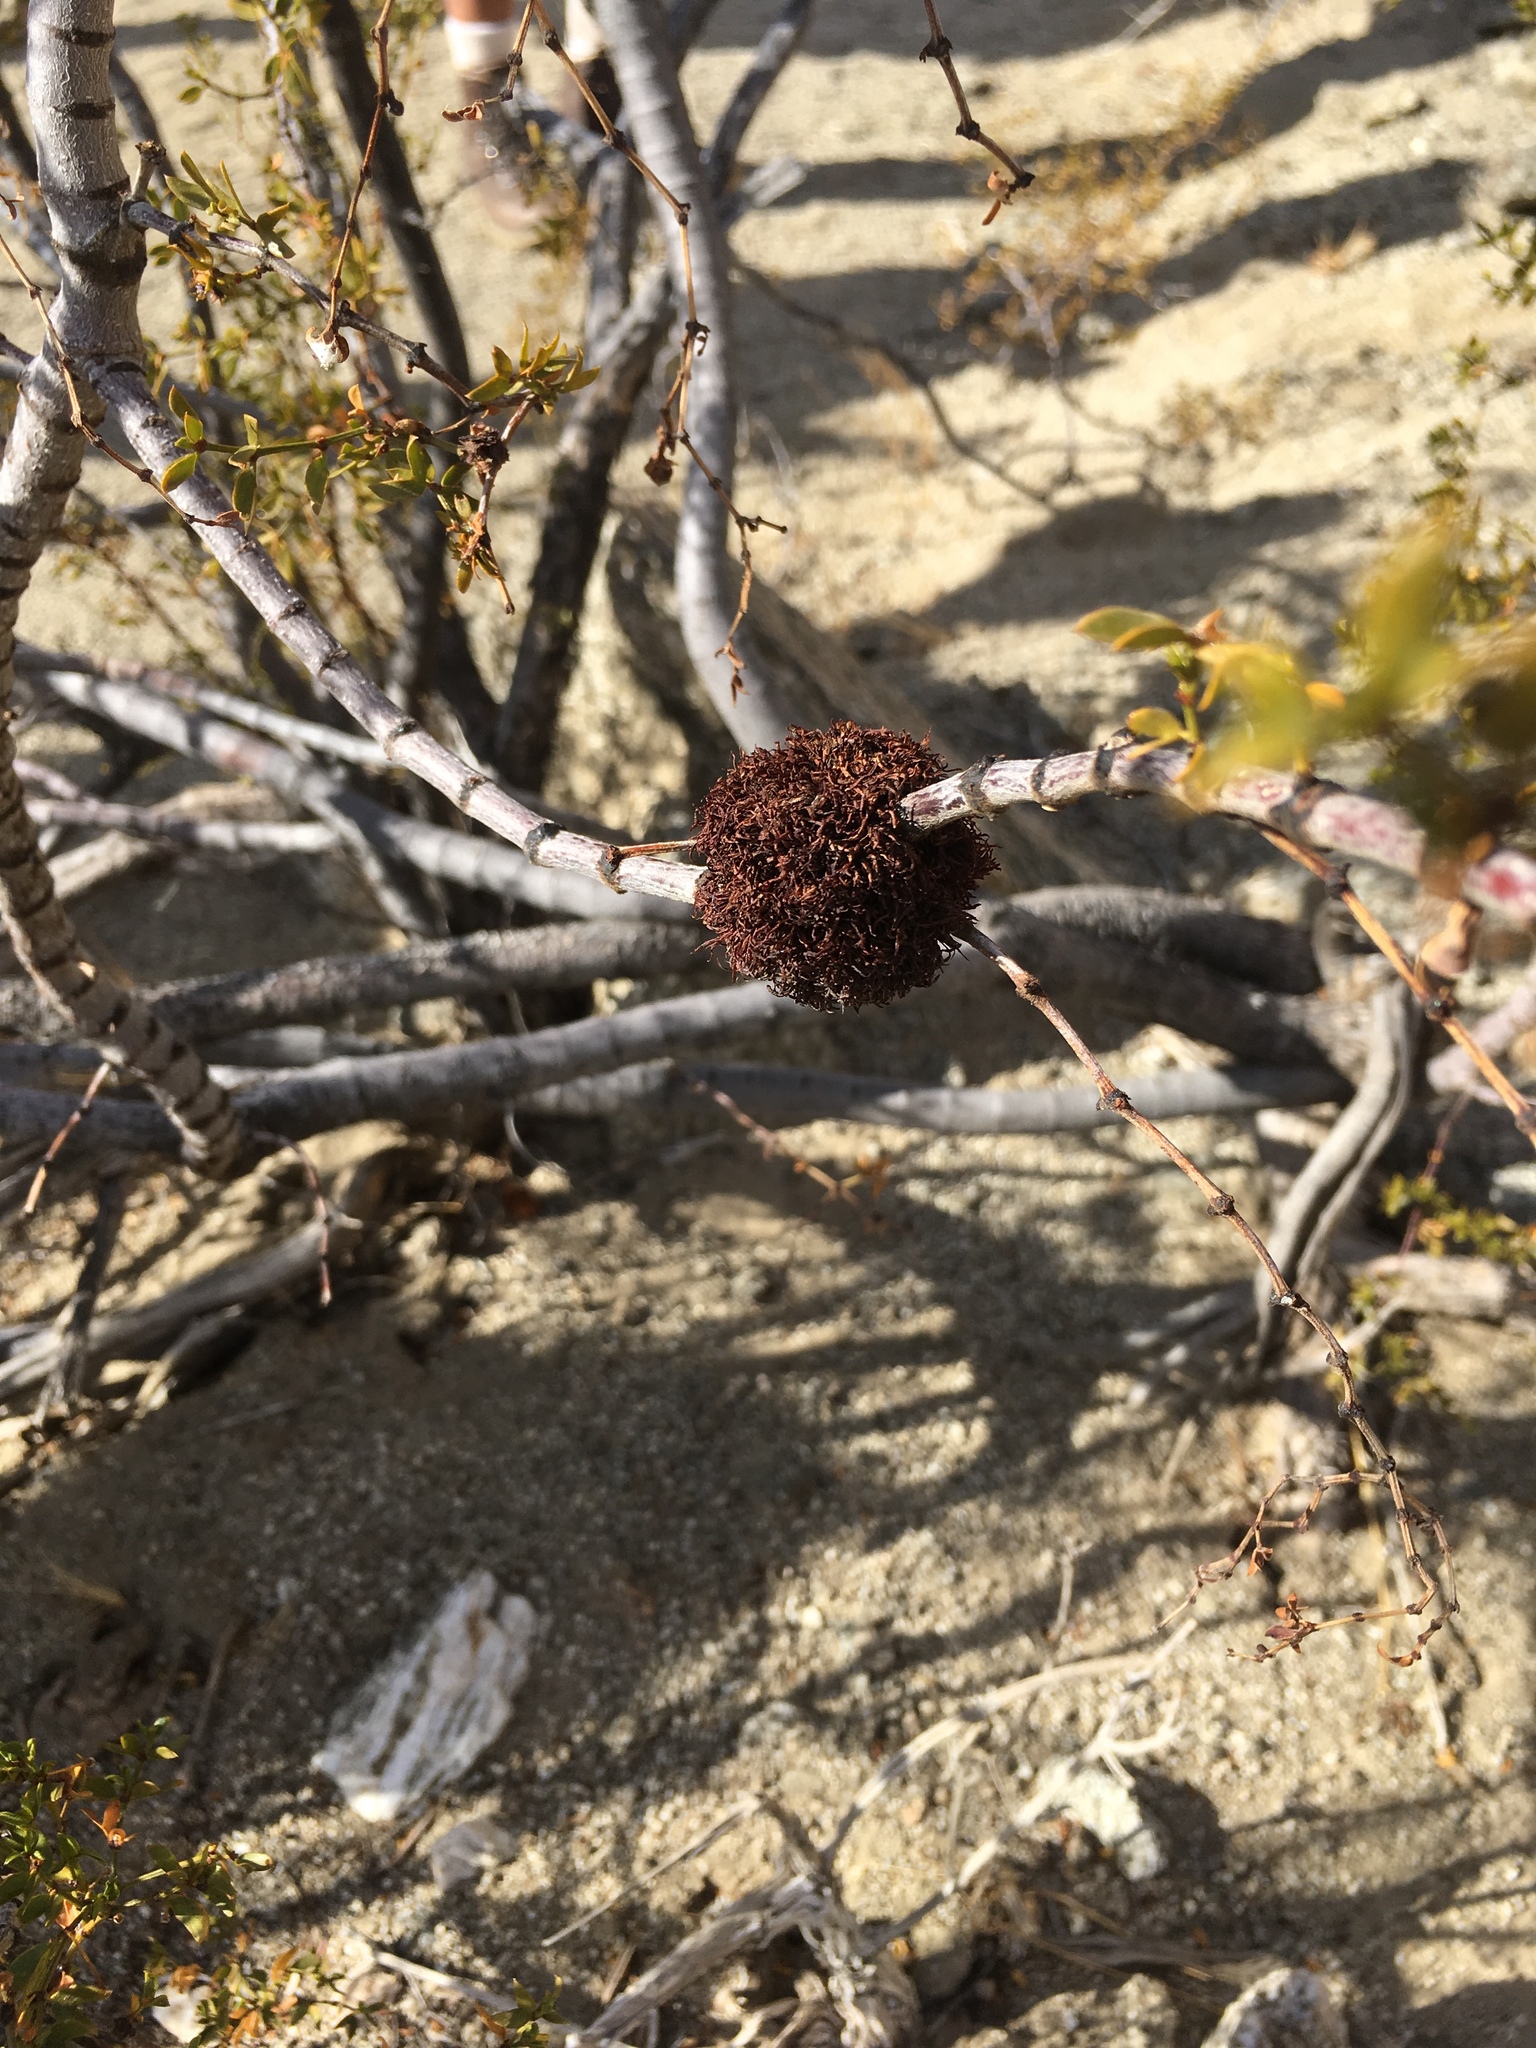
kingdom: Animalia
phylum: Arthropoda
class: Insecta
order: Diptera
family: Cecidomyiidae
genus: Asphondylia
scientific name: Asphondylia auripila
